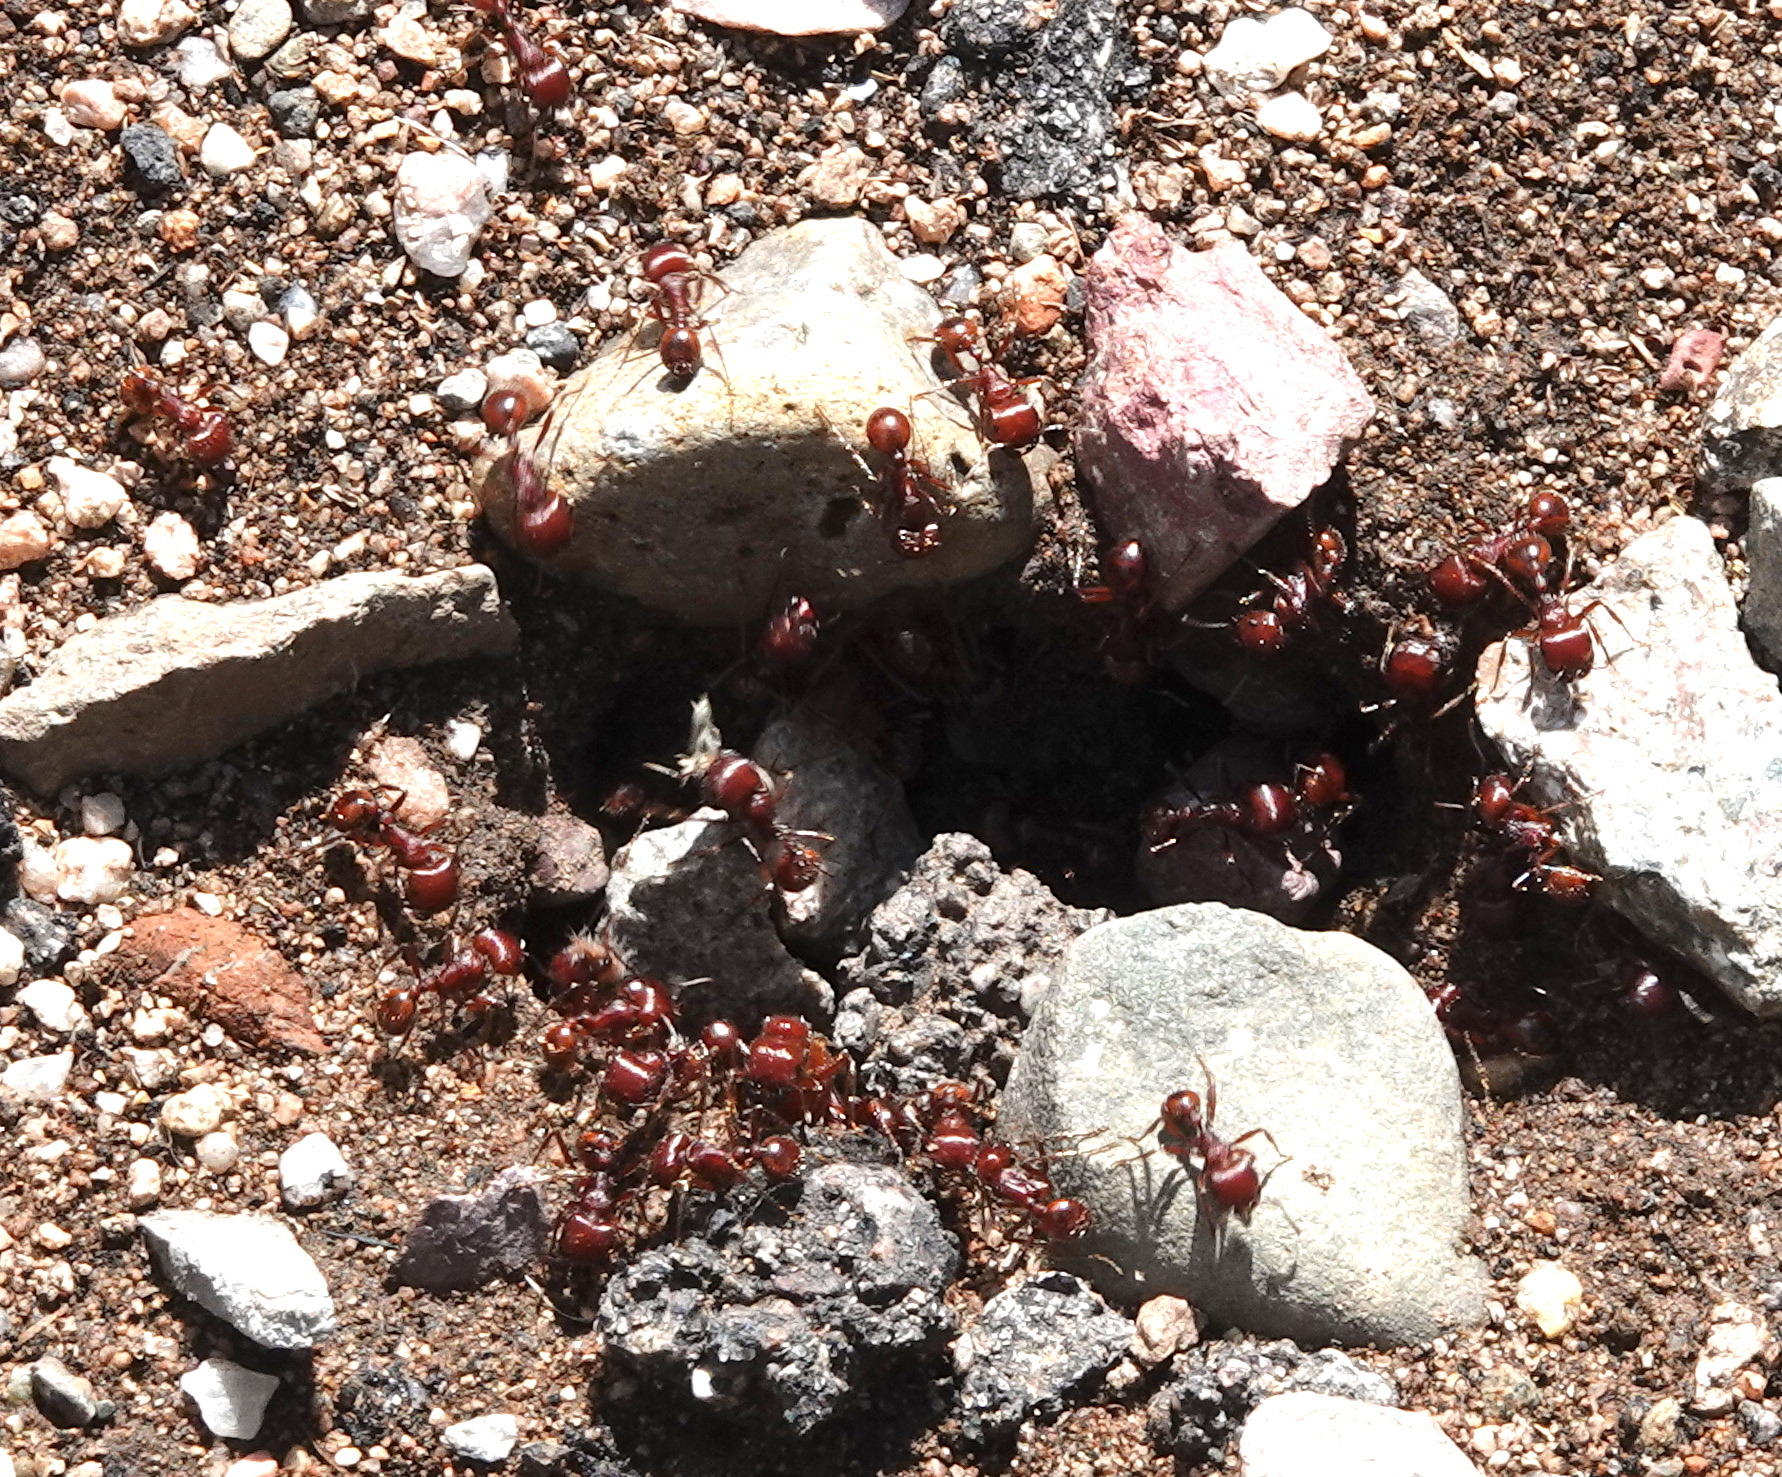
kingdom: Animalia
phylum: Arthropoda
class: Insecta
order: Hymenoptera
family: Formicidae
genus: Pogonomyrmex
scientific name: Pogonomyrmex barbatus
